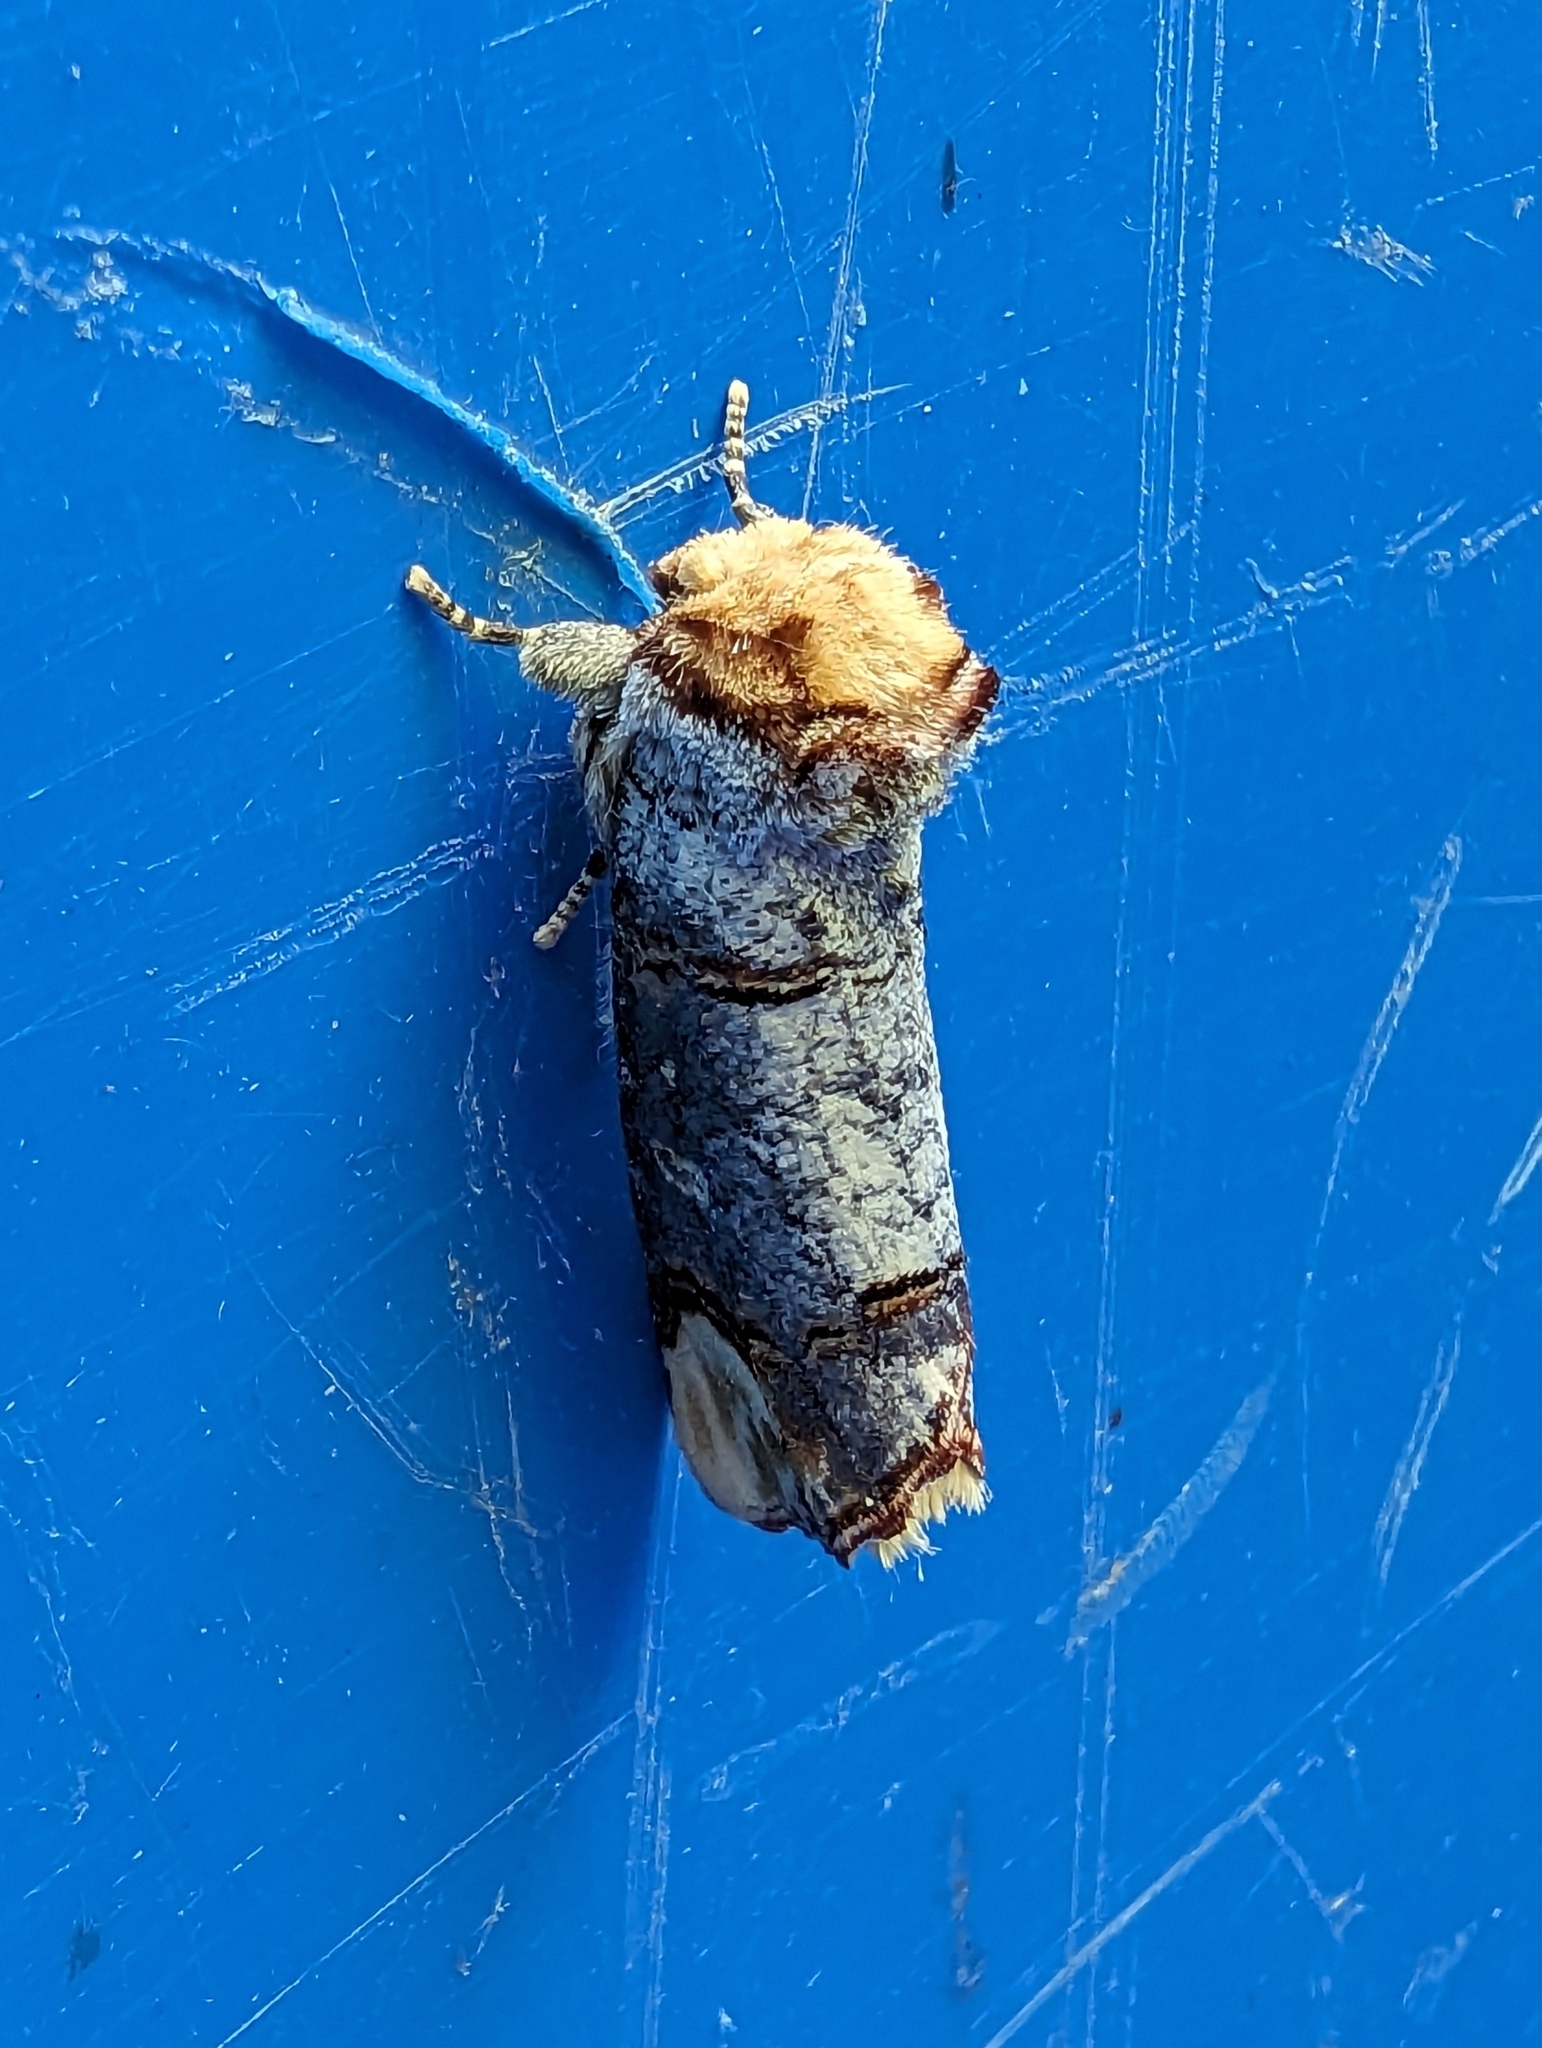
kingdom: Animalia
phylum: Arthropoda
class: Insecta
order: Lepidoptera
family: Notodontidae
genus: Phalera
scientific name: Phalera bucephala
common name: Buff-tip
